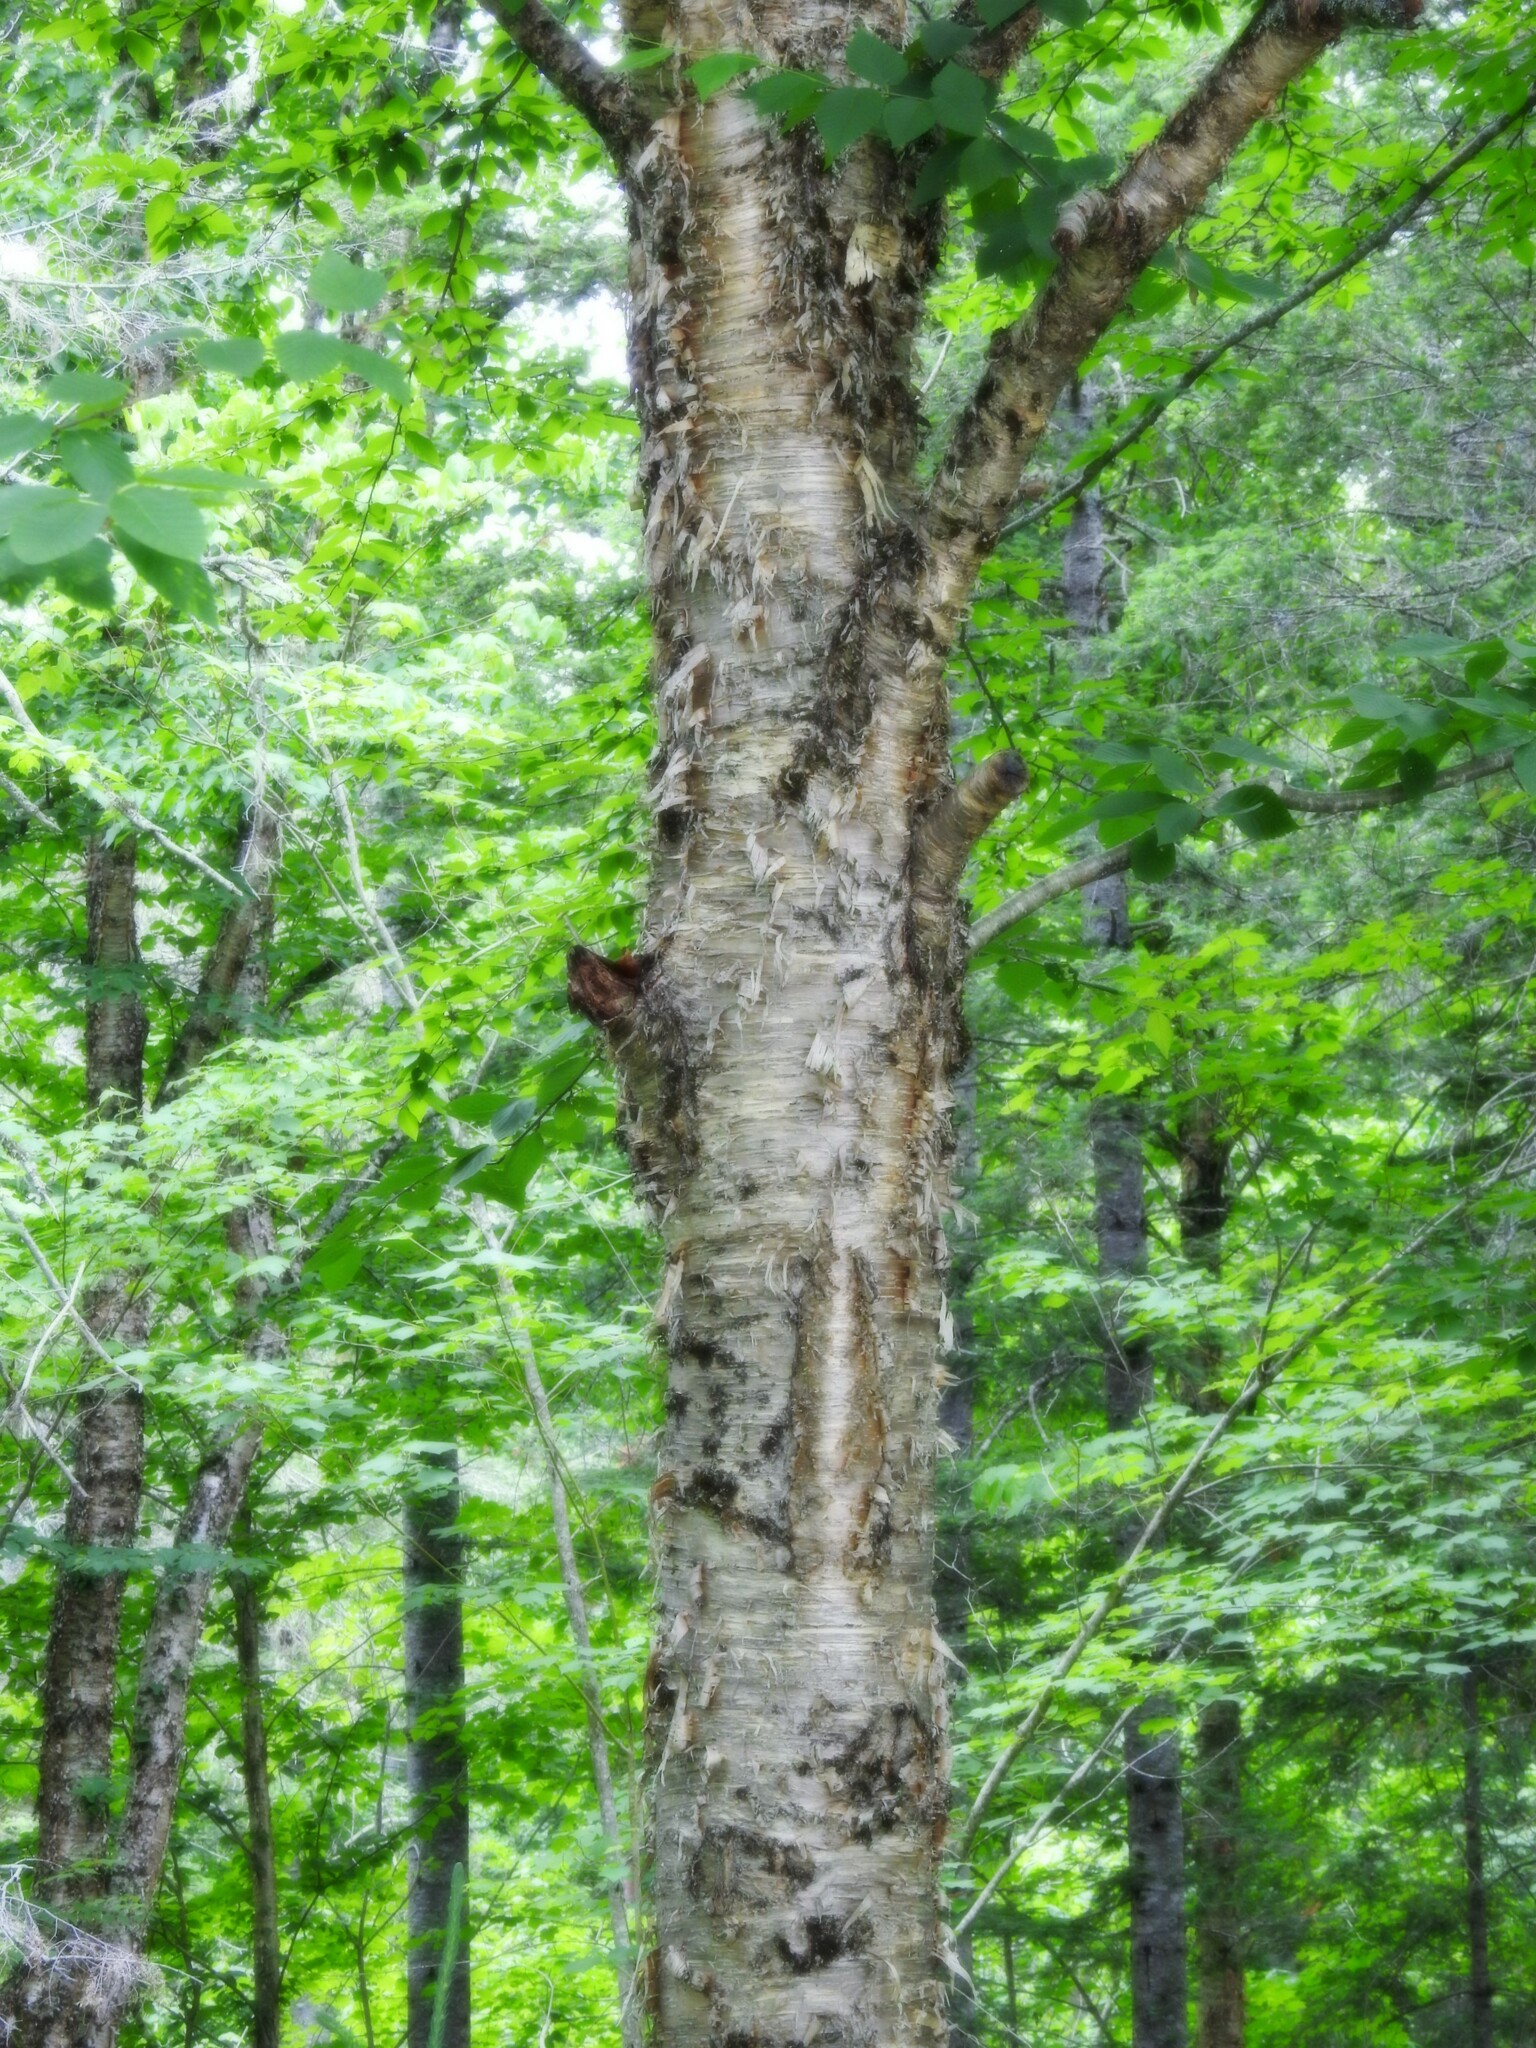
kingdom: Plantae
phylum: Tracheophyta
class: Magnoliopsida
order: Fagales
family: Betulaceae
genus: Betula
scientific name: Betula alleghaniensis
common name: Yellow birch
